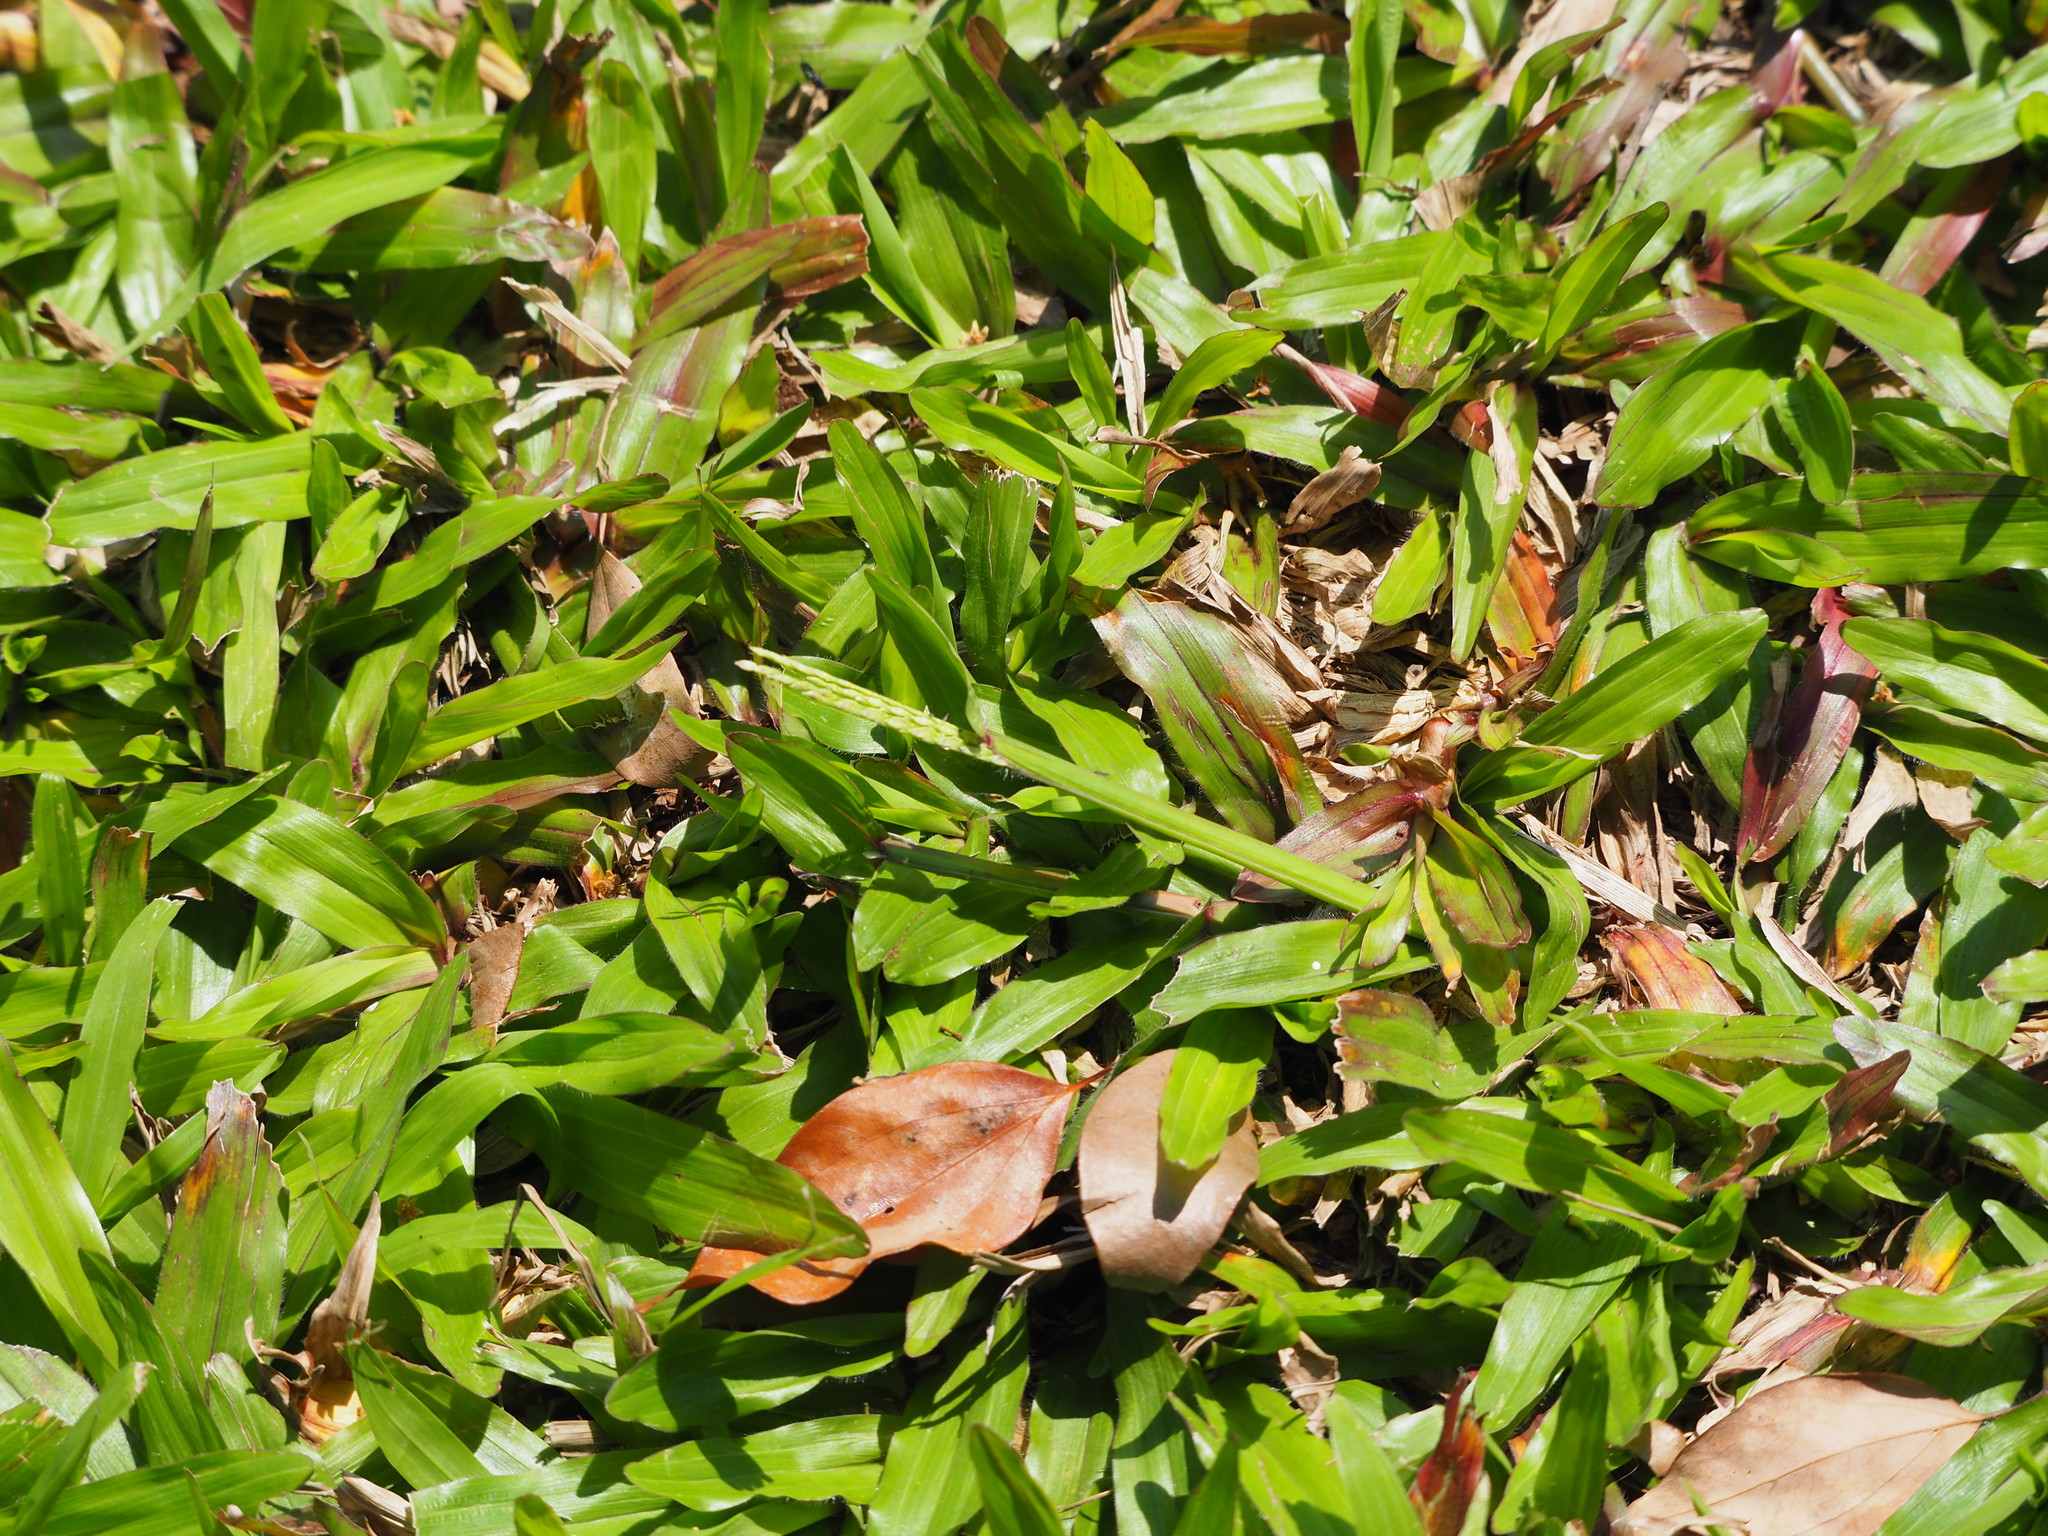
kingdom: Plantae
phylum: Tracheophyta
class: Liliopsida
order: Poales
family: Poaceae
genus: Axonopus
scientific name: Axonopus compressus
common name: American carpet grass
